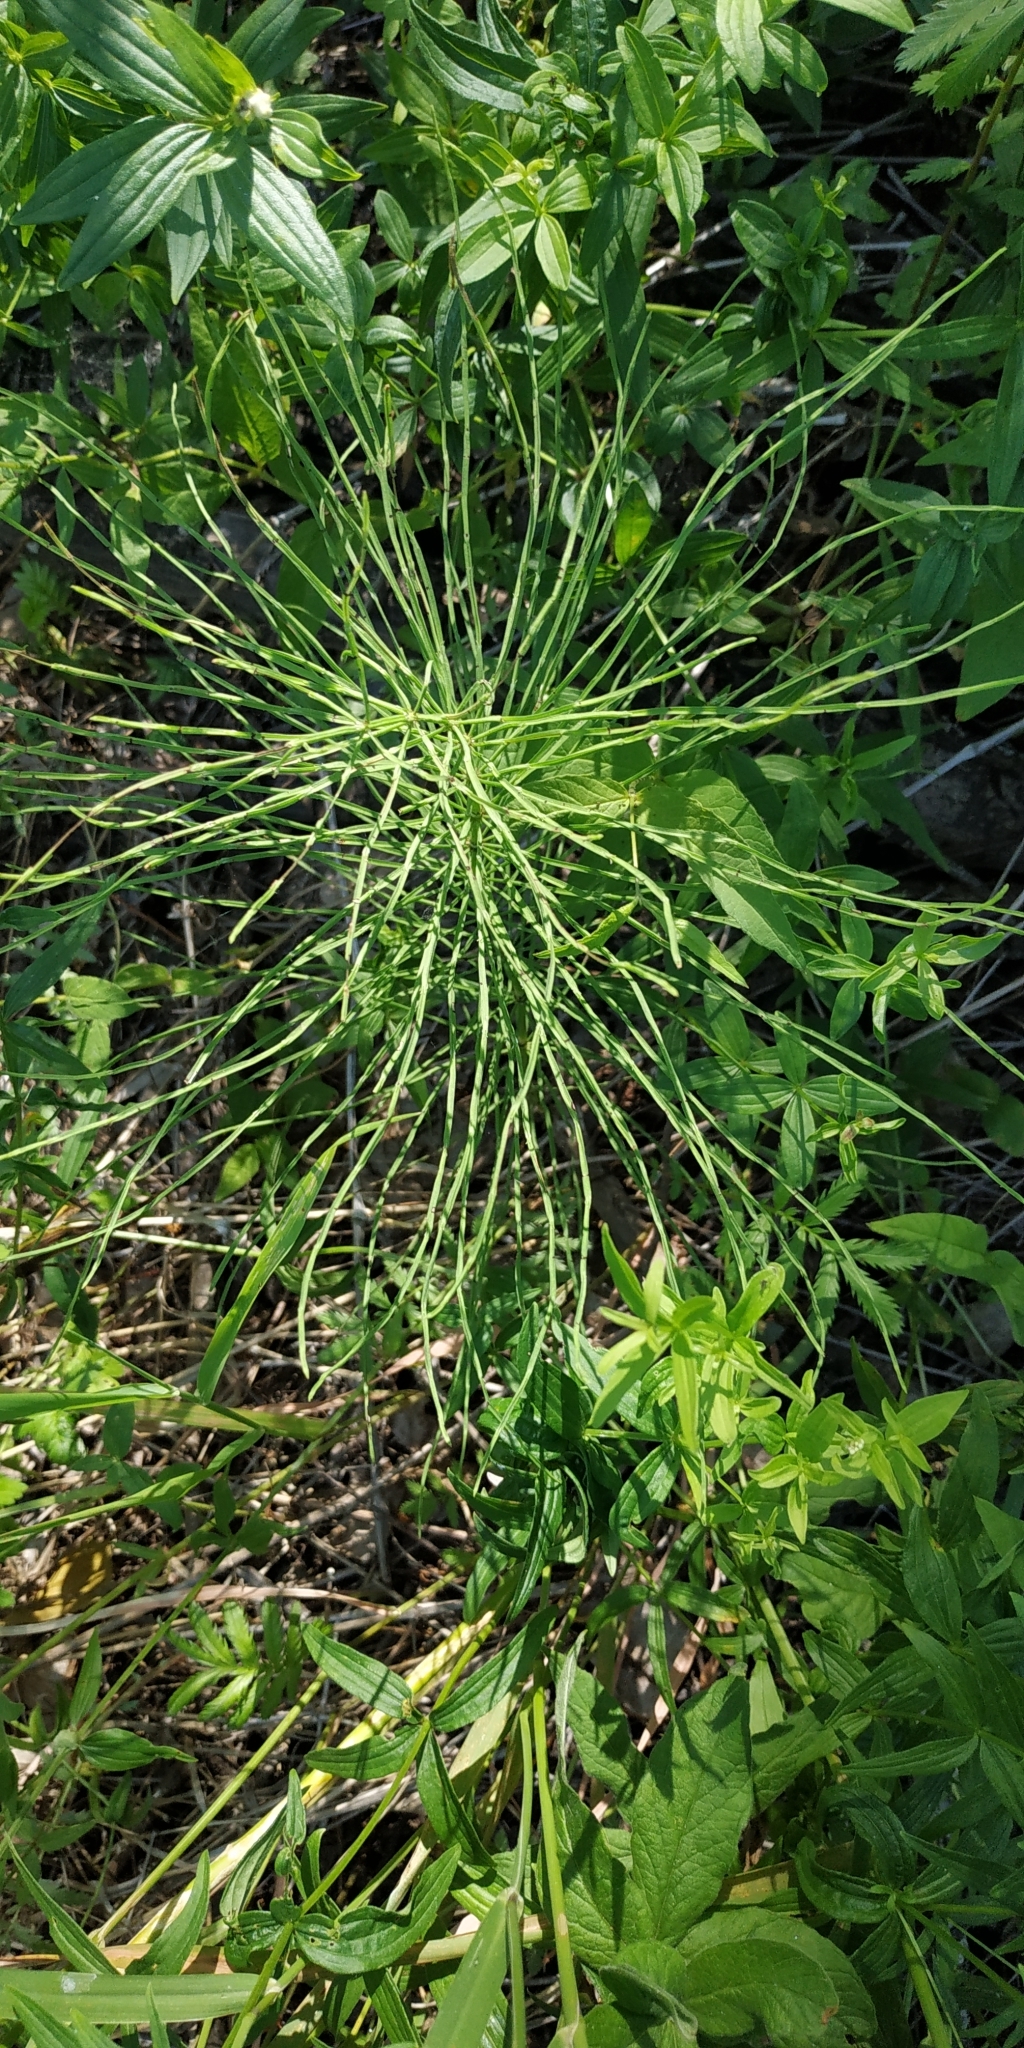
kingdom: Plantae
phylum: Tracheophyta
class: Polypodiopsida
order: Equisetales
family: Equisetaceae
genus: Equisetum
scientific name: Equisetum pratense
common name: Meadow horsetail
